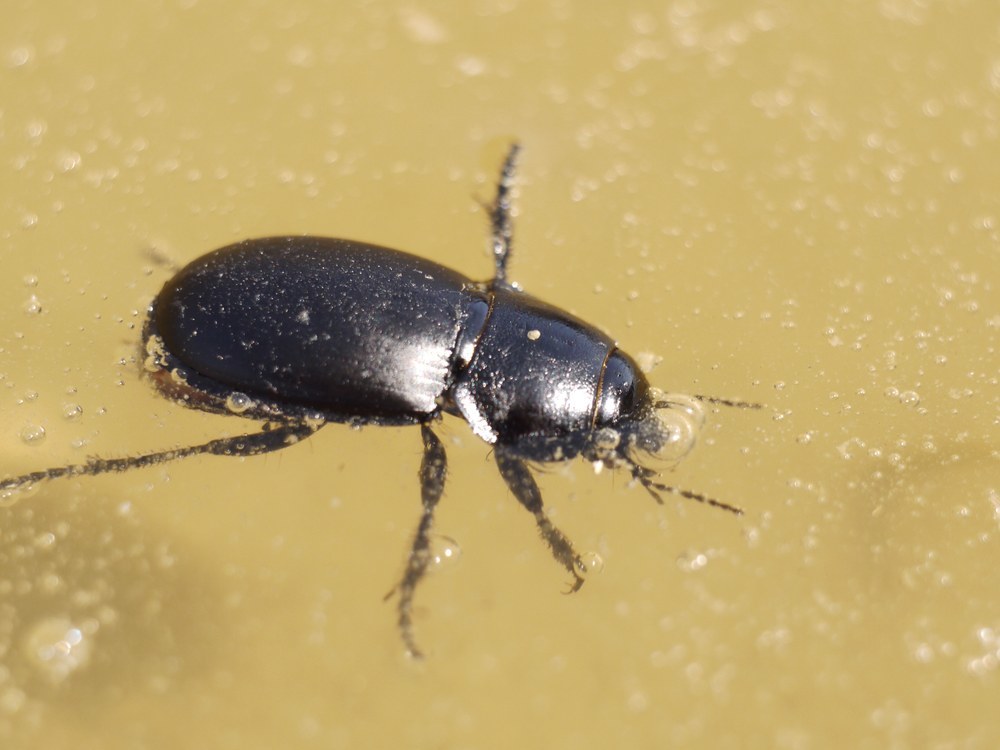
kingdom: Animalia
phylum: Arthropoda
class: Insecta
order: Coleoptera
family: Carabidae
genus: Zabrus
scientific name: Zabrus spinipes
